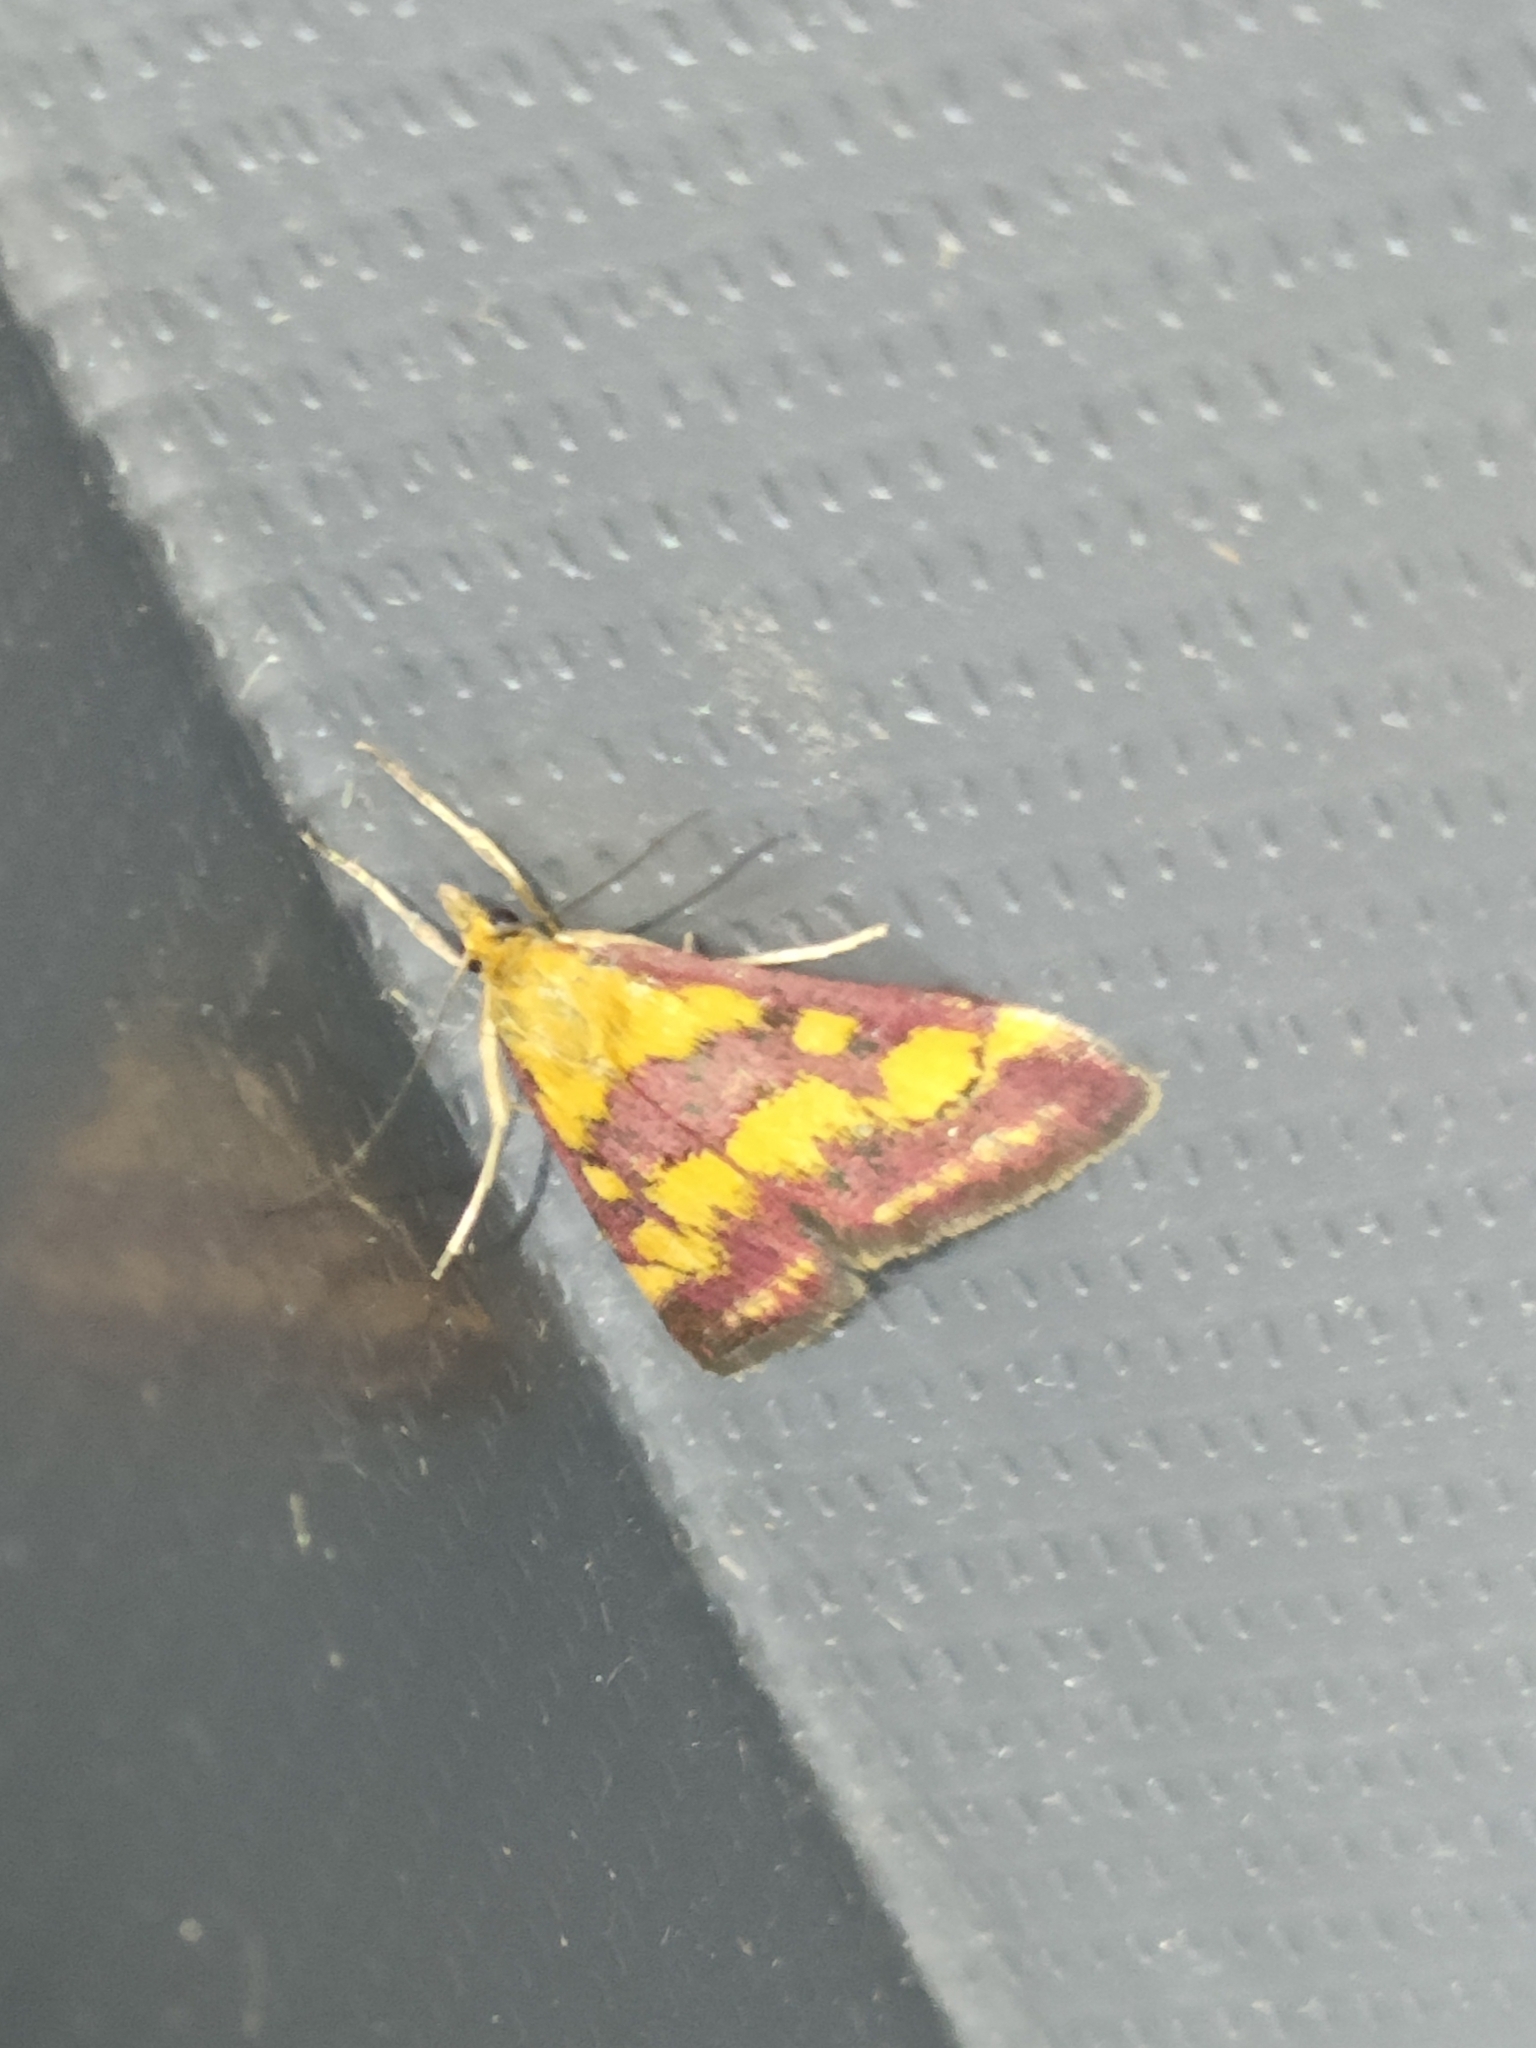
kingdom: Animalia
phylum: Arthropoda
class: Insecta
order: Lepidoptera
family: Crambidae
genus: Pyrausta
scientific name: Pyrausta sanguinalis
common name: Scarce crimson and gold
